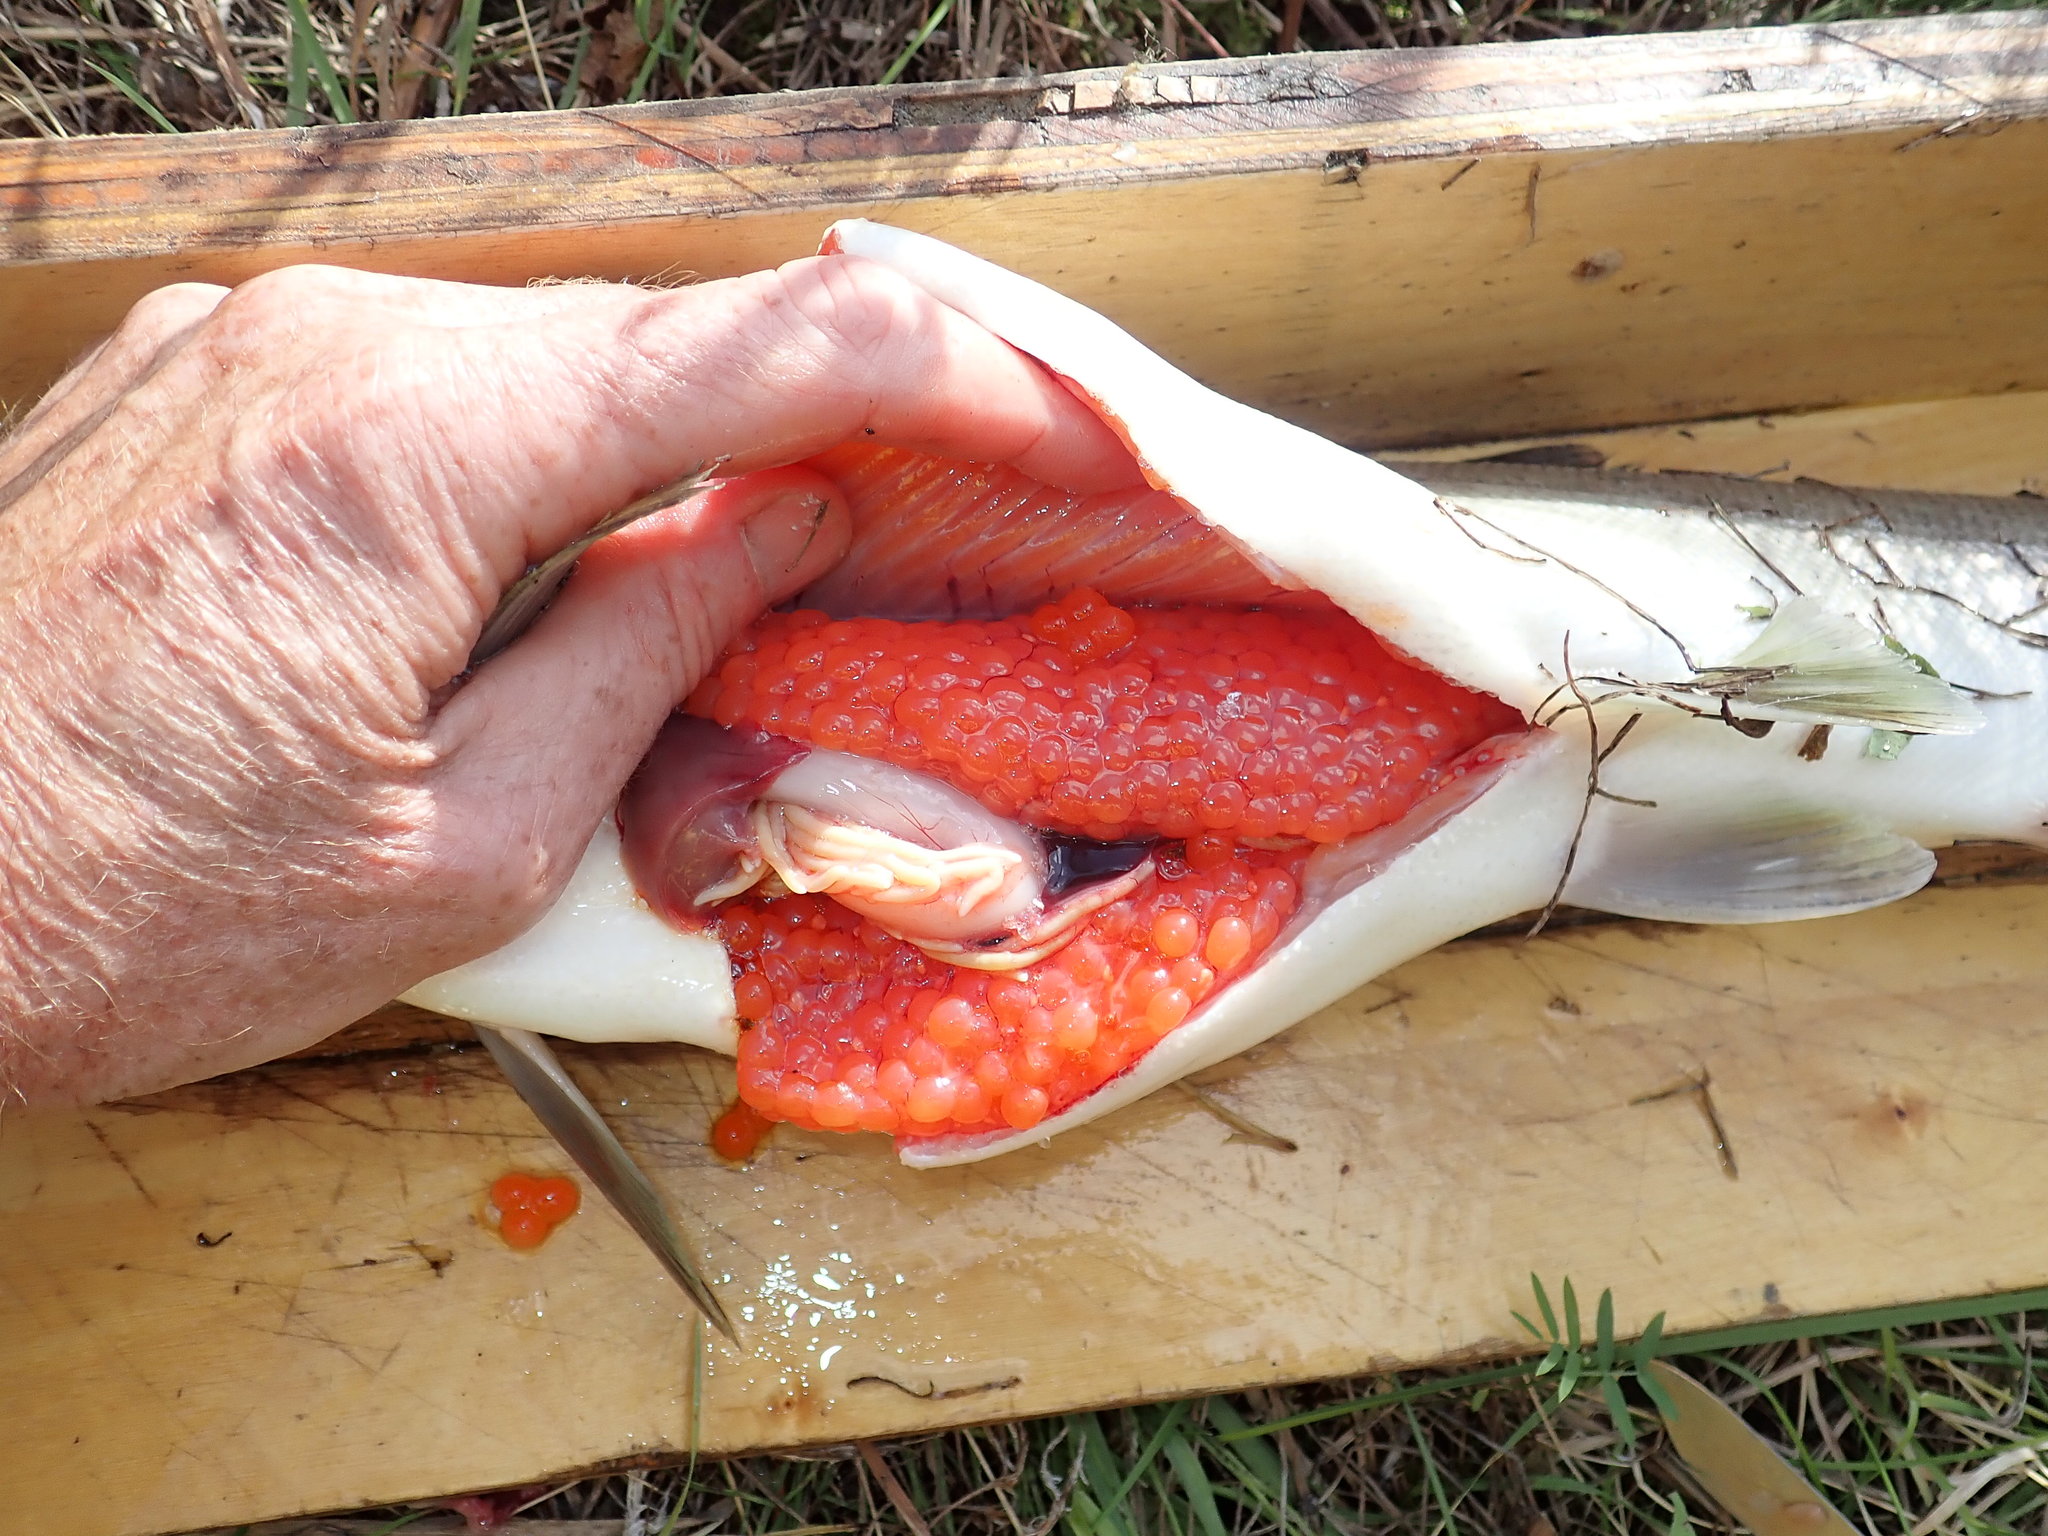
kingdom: Animalia
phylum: Chordata
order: Salmoniformes
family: Salmonidae
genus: Oncorhynchus
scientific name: Oncorhynchus kisutch
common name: Coho salmon
